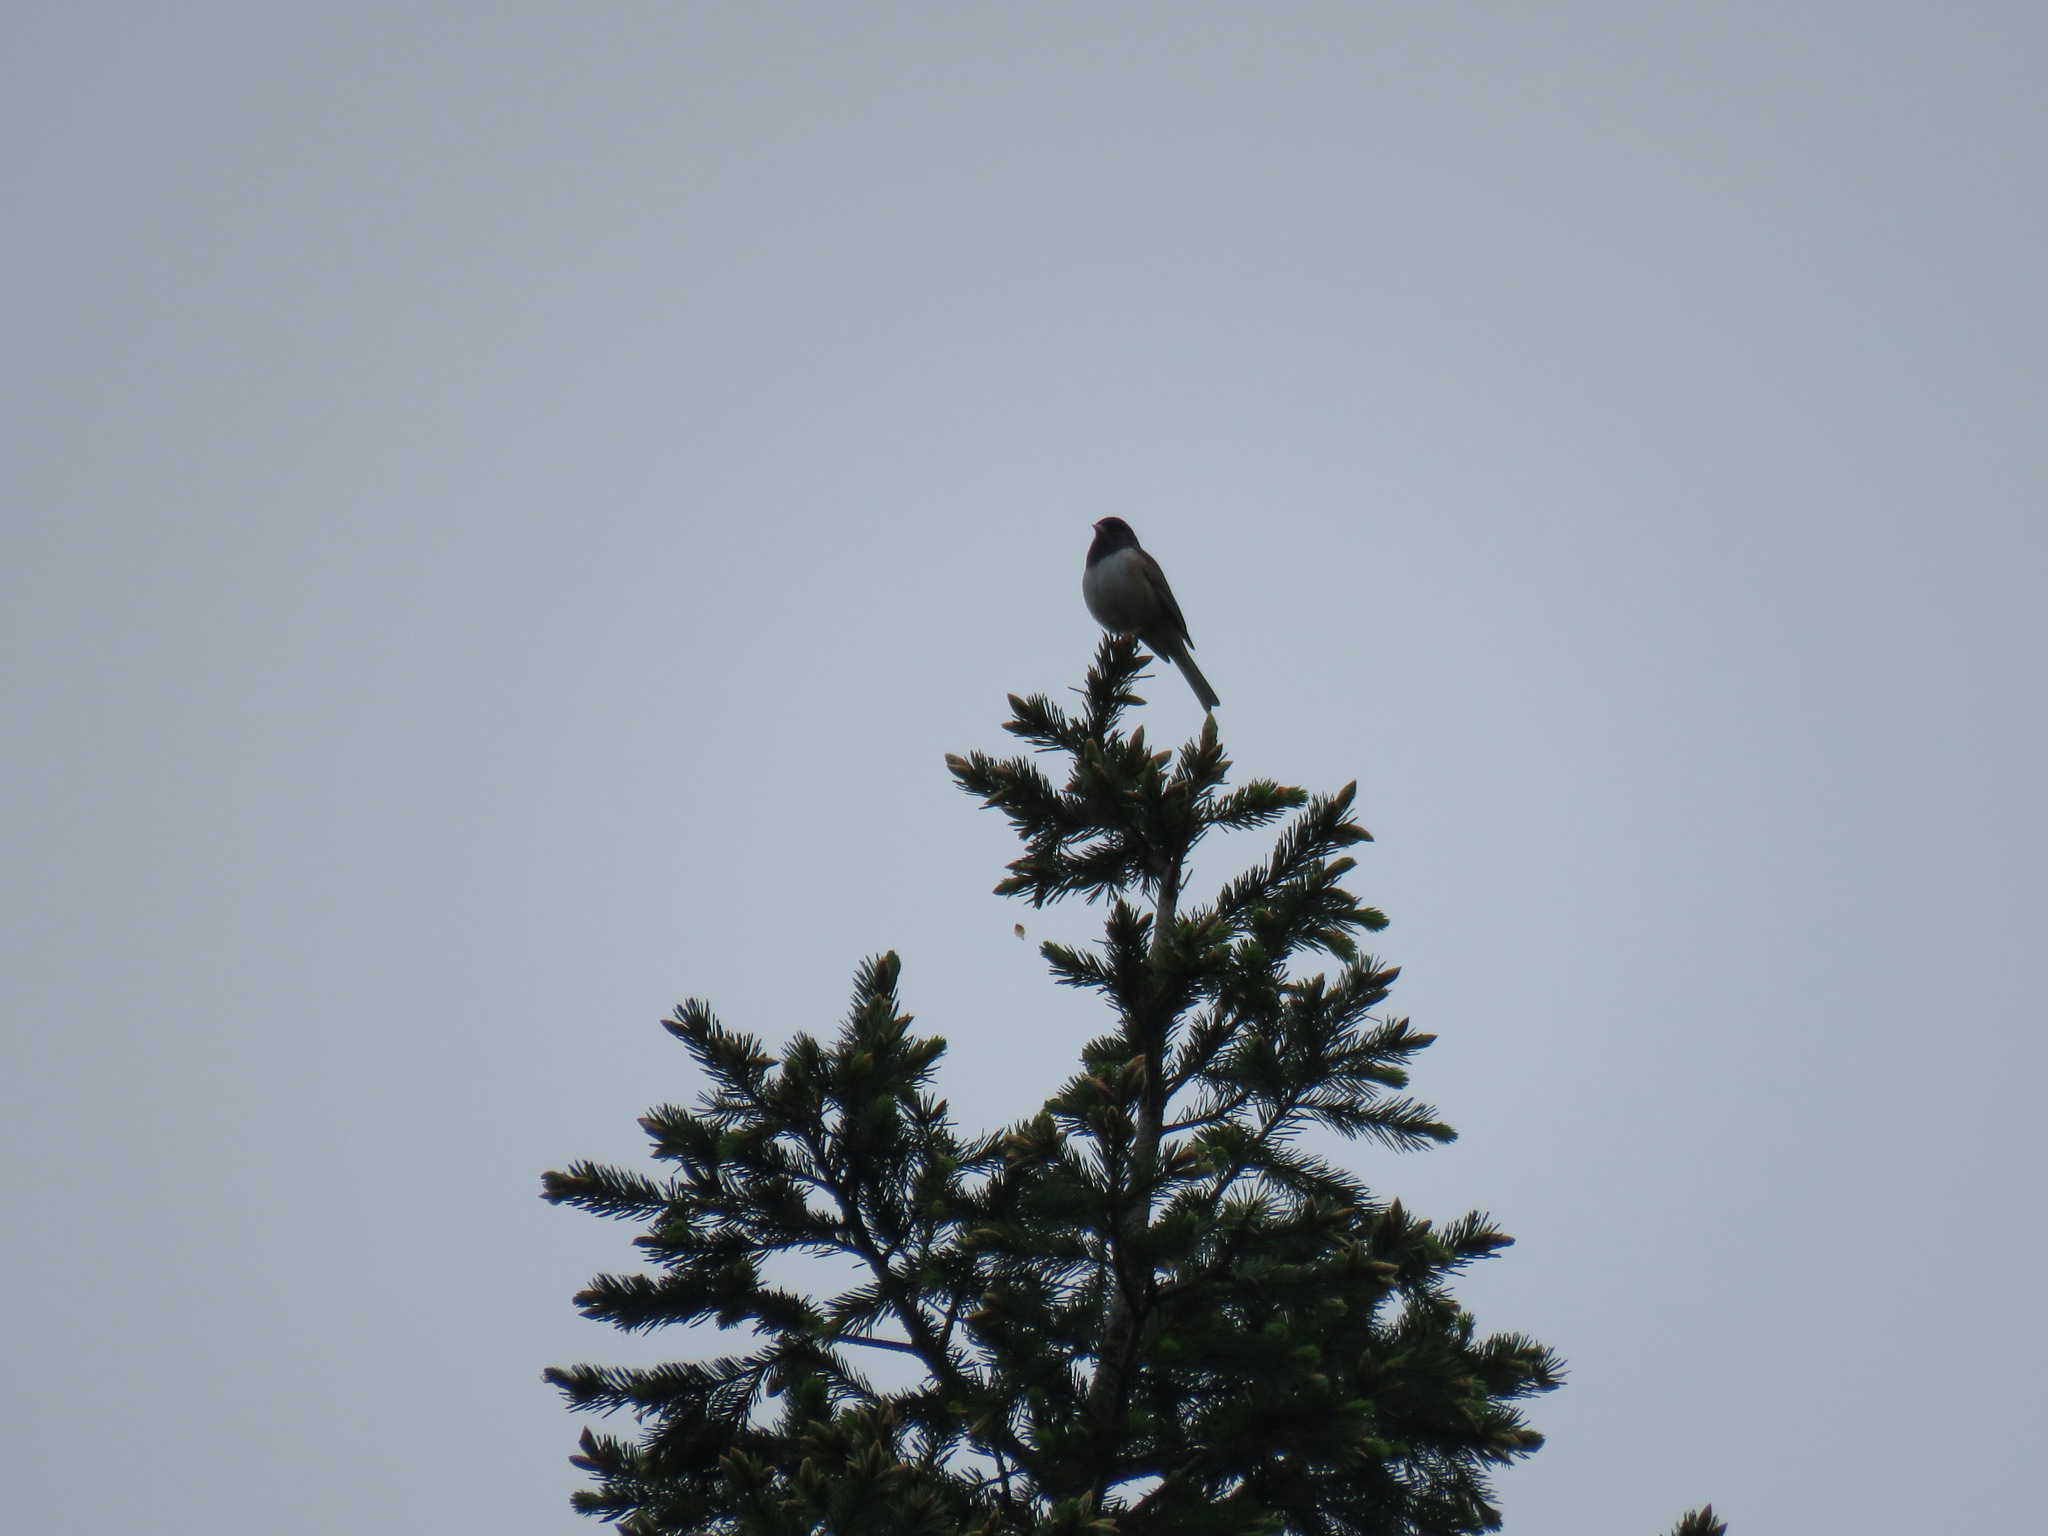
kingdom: Animalia
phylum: Chordata
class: Aves
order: Passeriformes
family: Passerellidae
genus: Junco
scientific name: Junco hyemalis
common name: Dark-eyed junco
